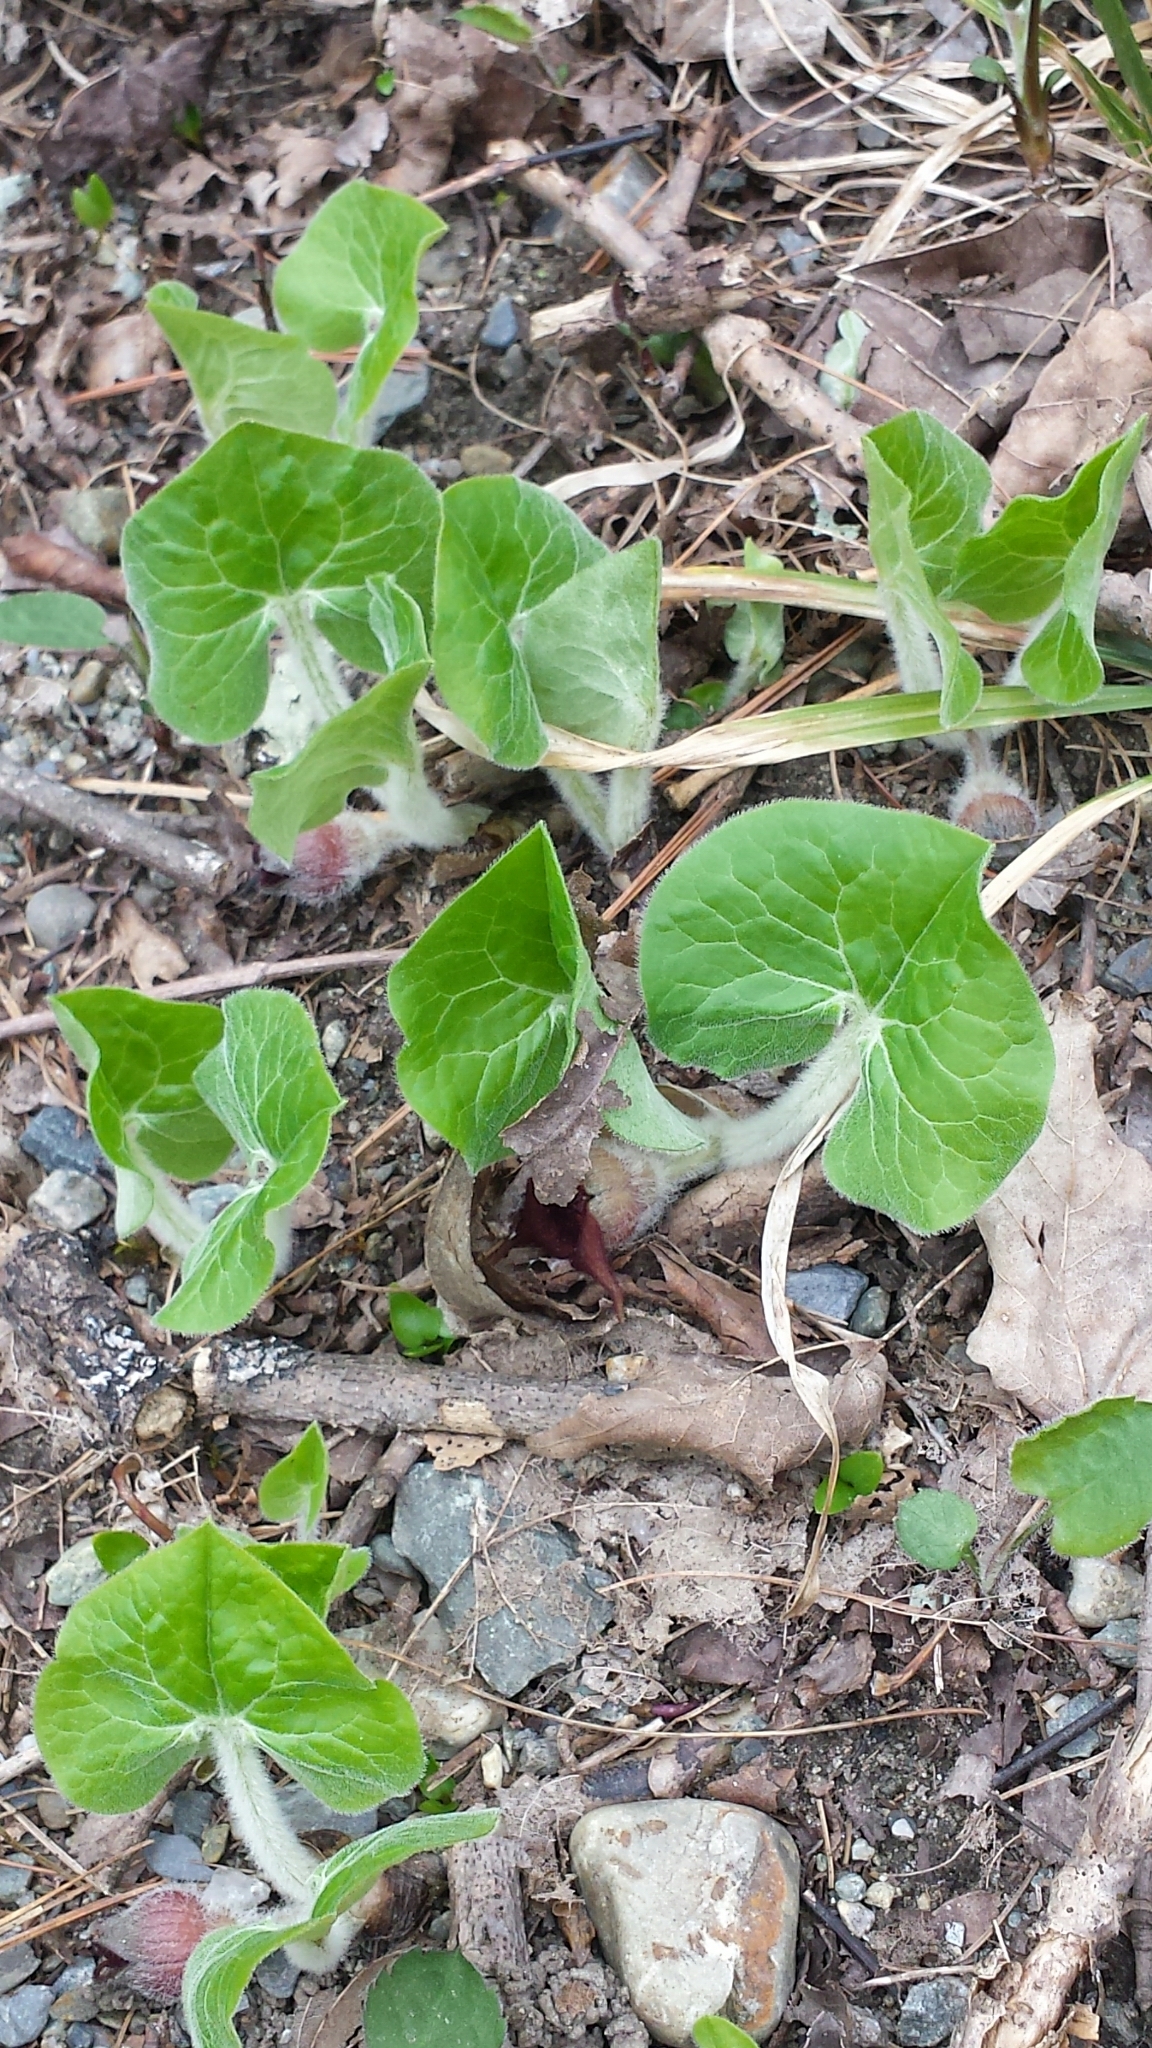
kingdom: Plantae
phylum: Tracheophyta
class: Magnoliopsida
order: Piperales
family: Aristolochiaceae
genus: Asarum
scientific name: Asarum canadense
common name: Wild ginger
